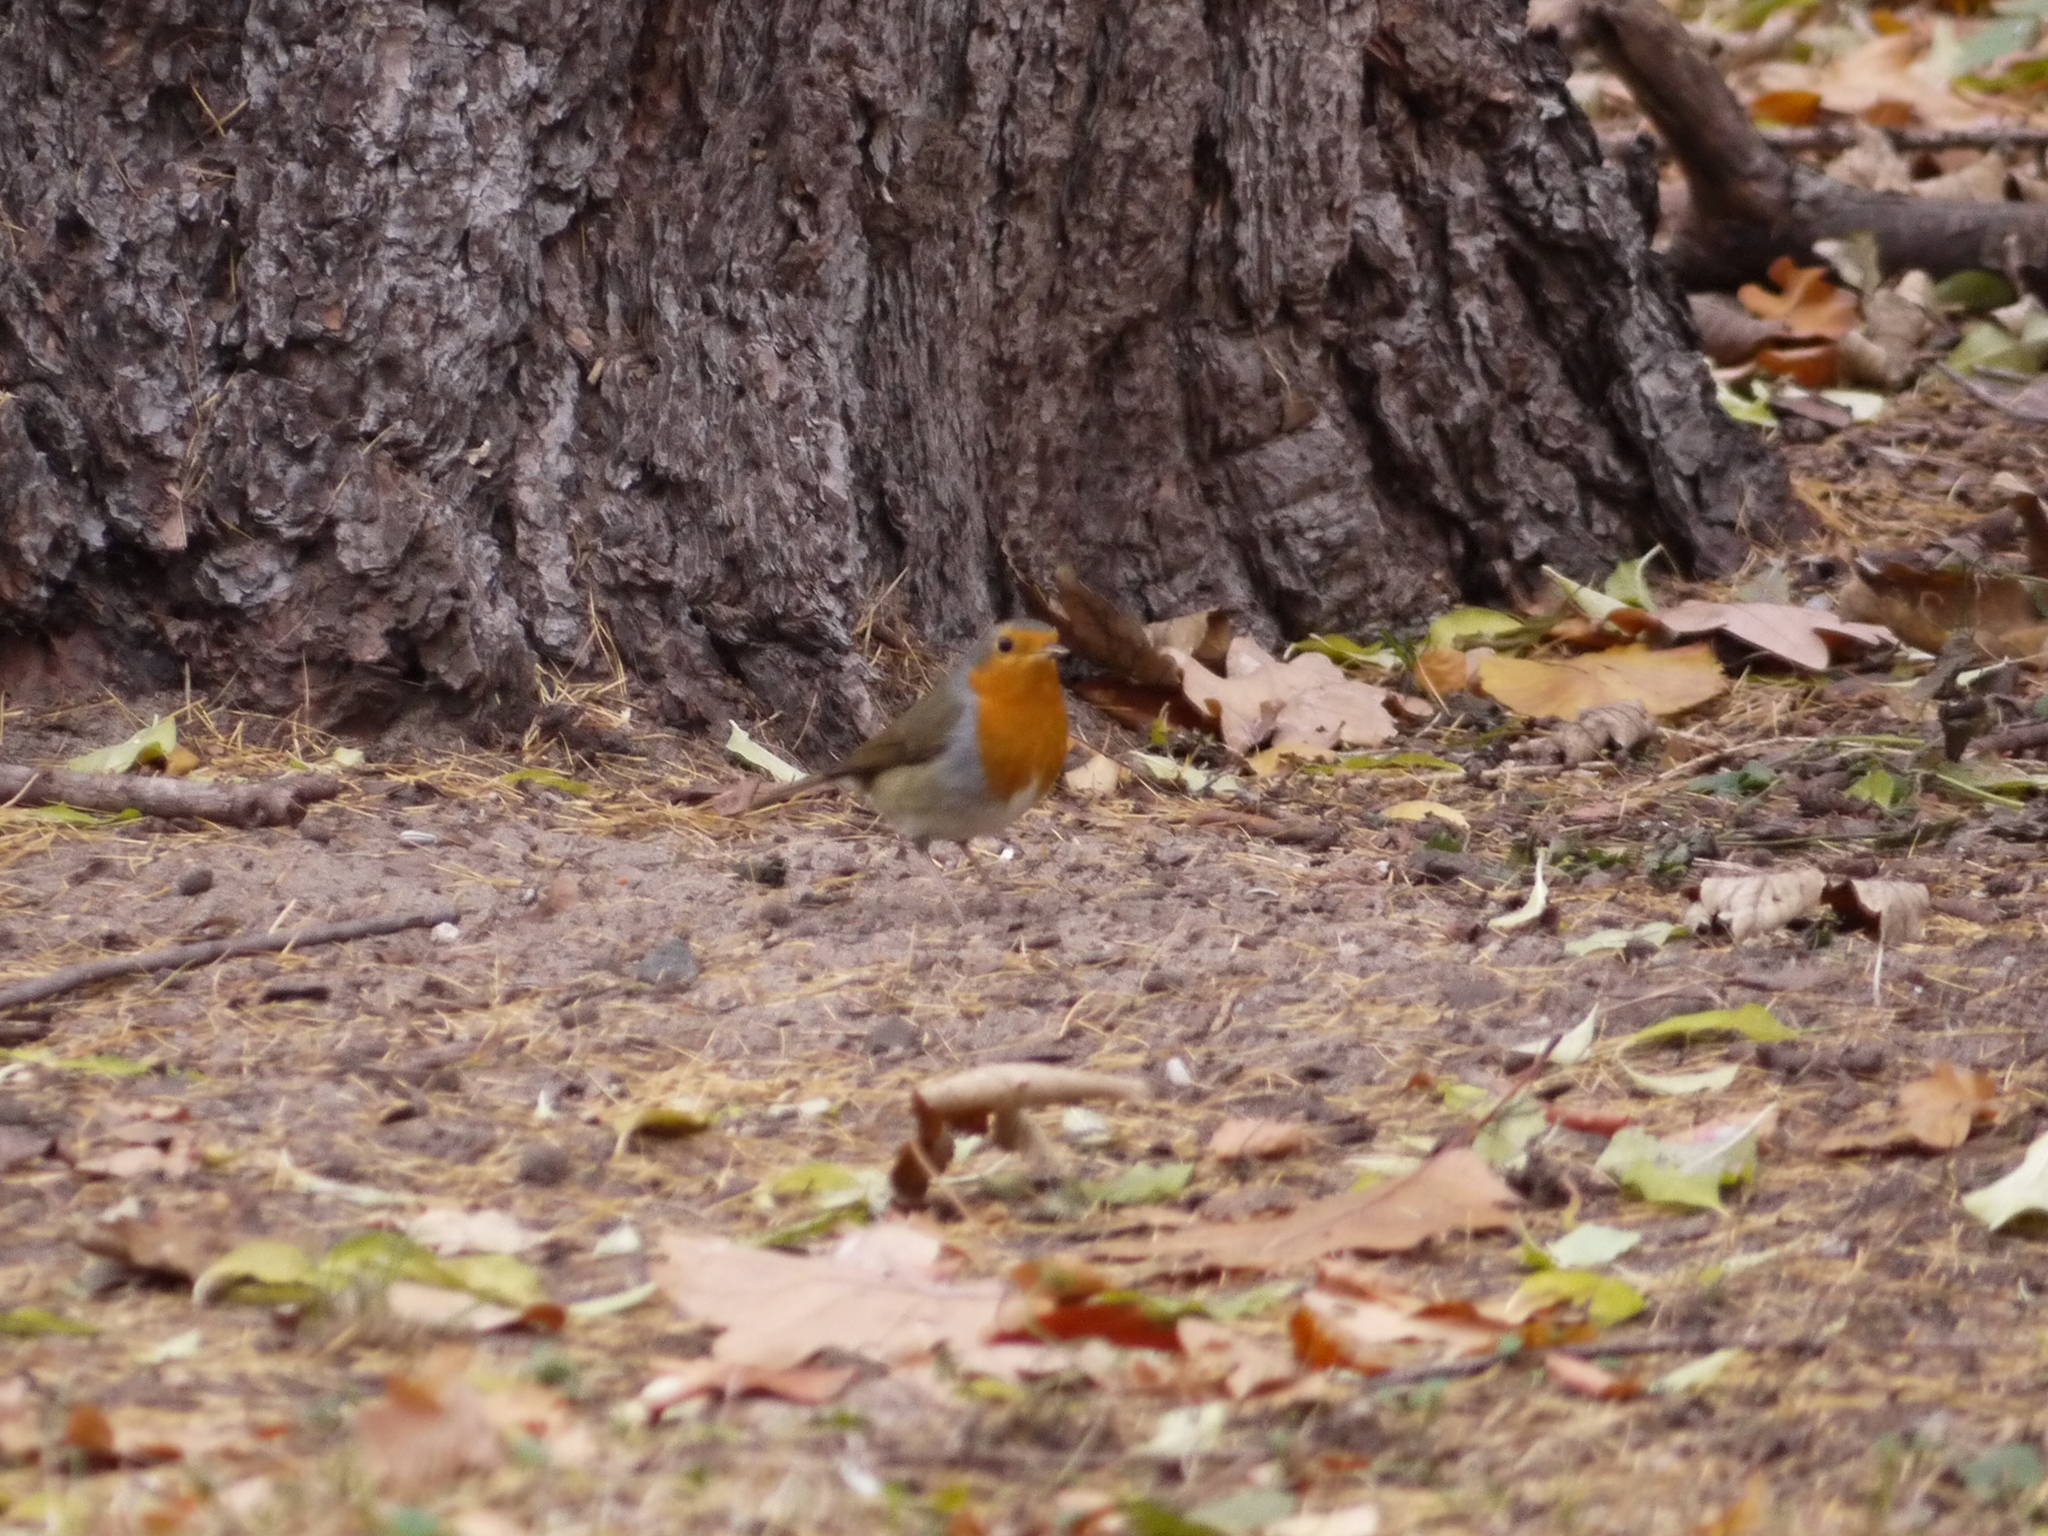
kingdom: Animalia
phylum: Chordata
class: Aves
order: Passeriformes
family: Muscicapidae
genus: Erithacus
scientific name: Erithacus rubecula
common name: European robin
